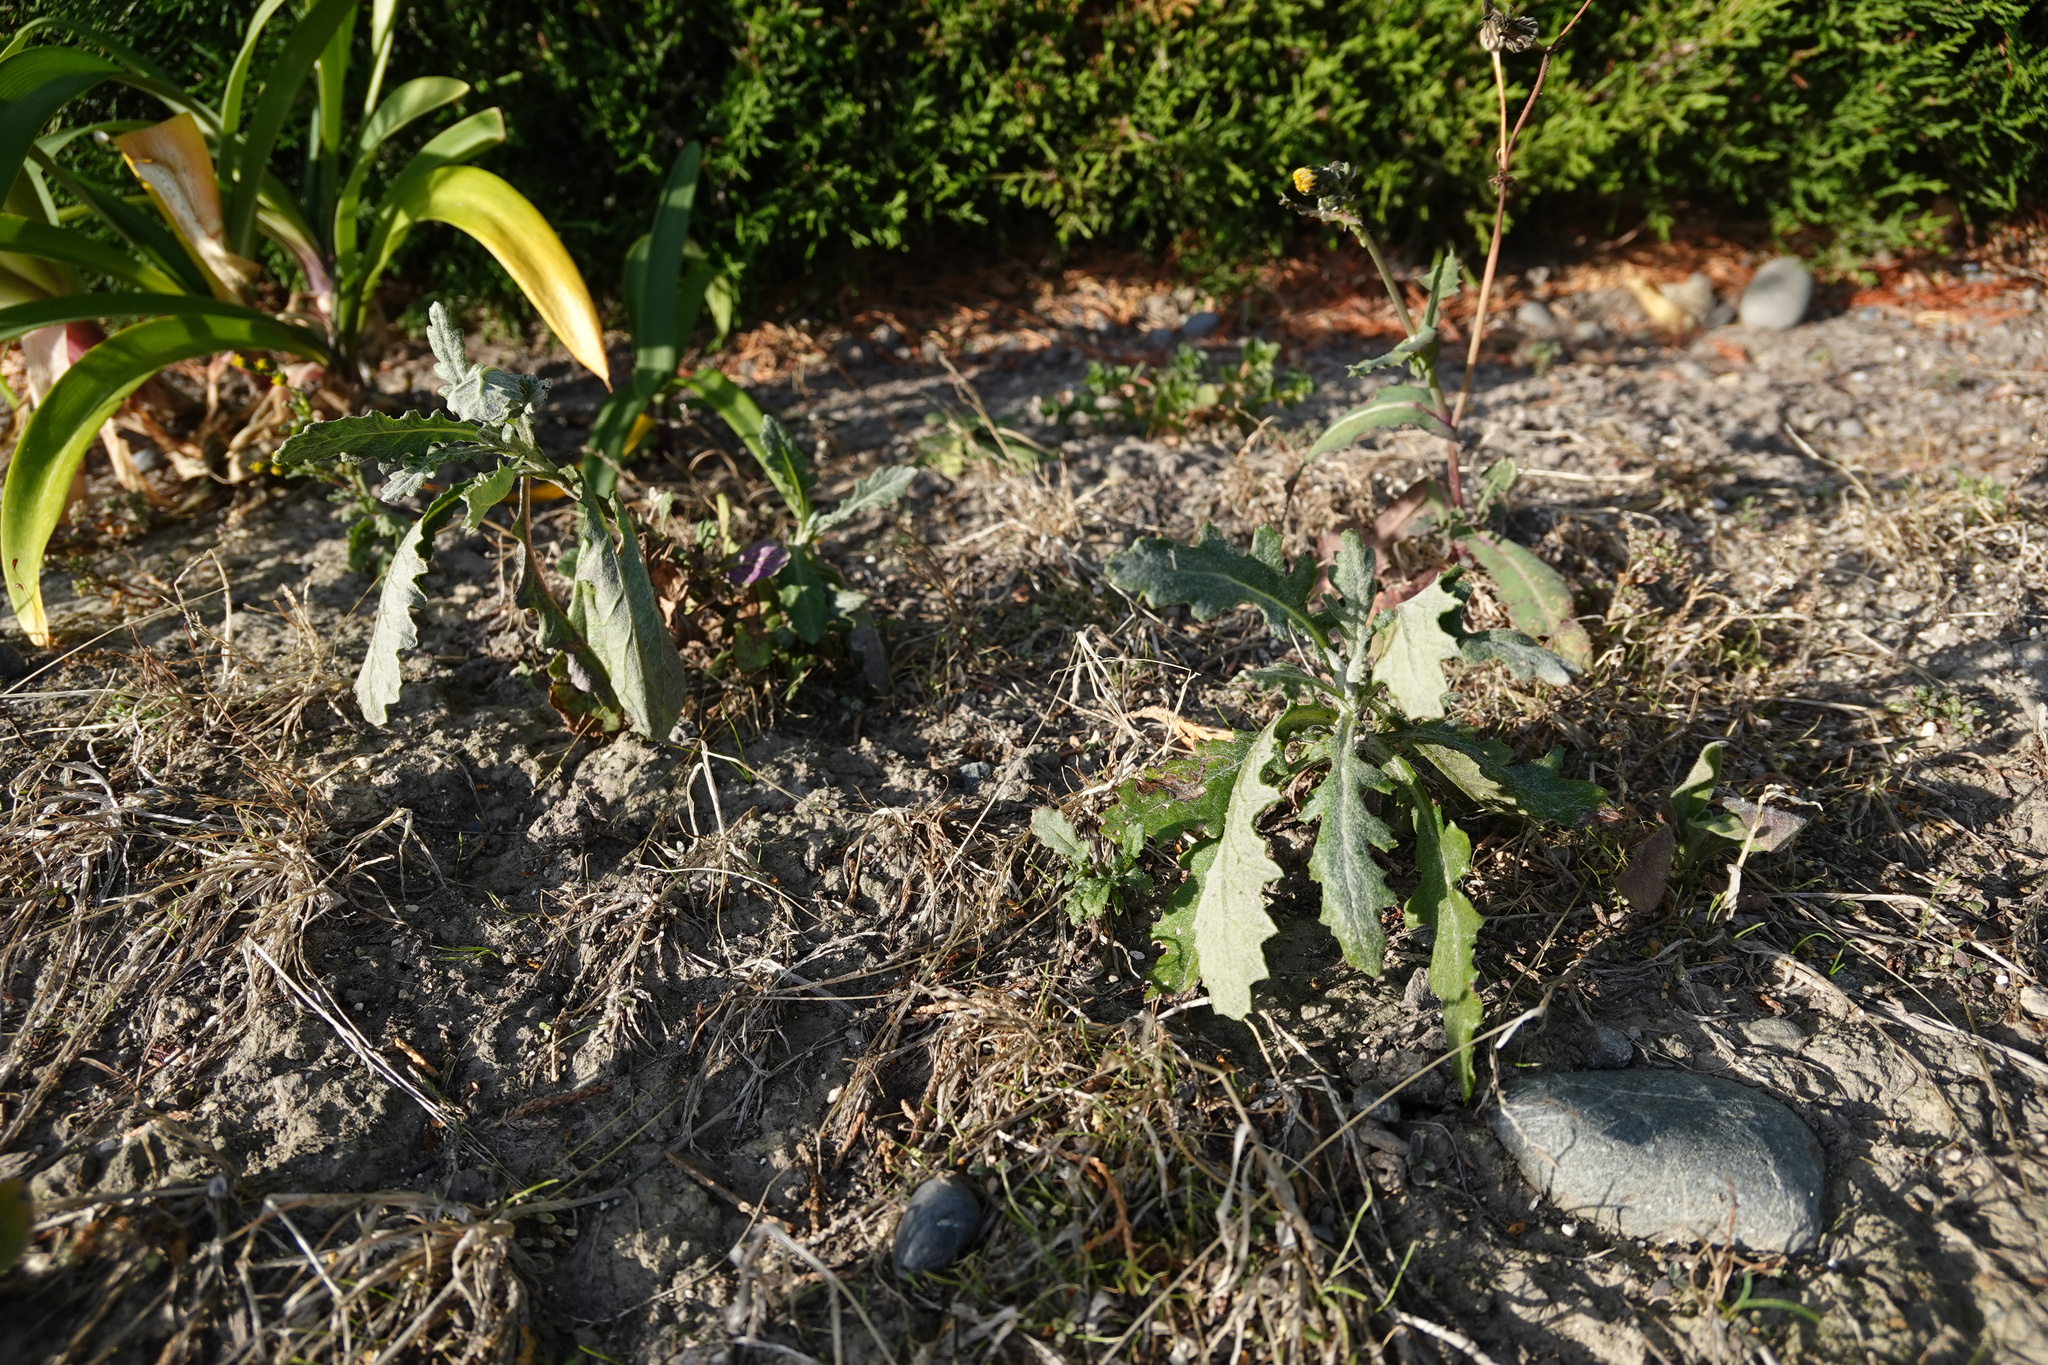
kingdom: Plantae
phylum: Tracheophyta
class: Magnoliopsida
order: Asterales
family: Asteraceae
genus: Senecio
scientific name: Senecio glomeratus
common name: Cutleaf burnweed
